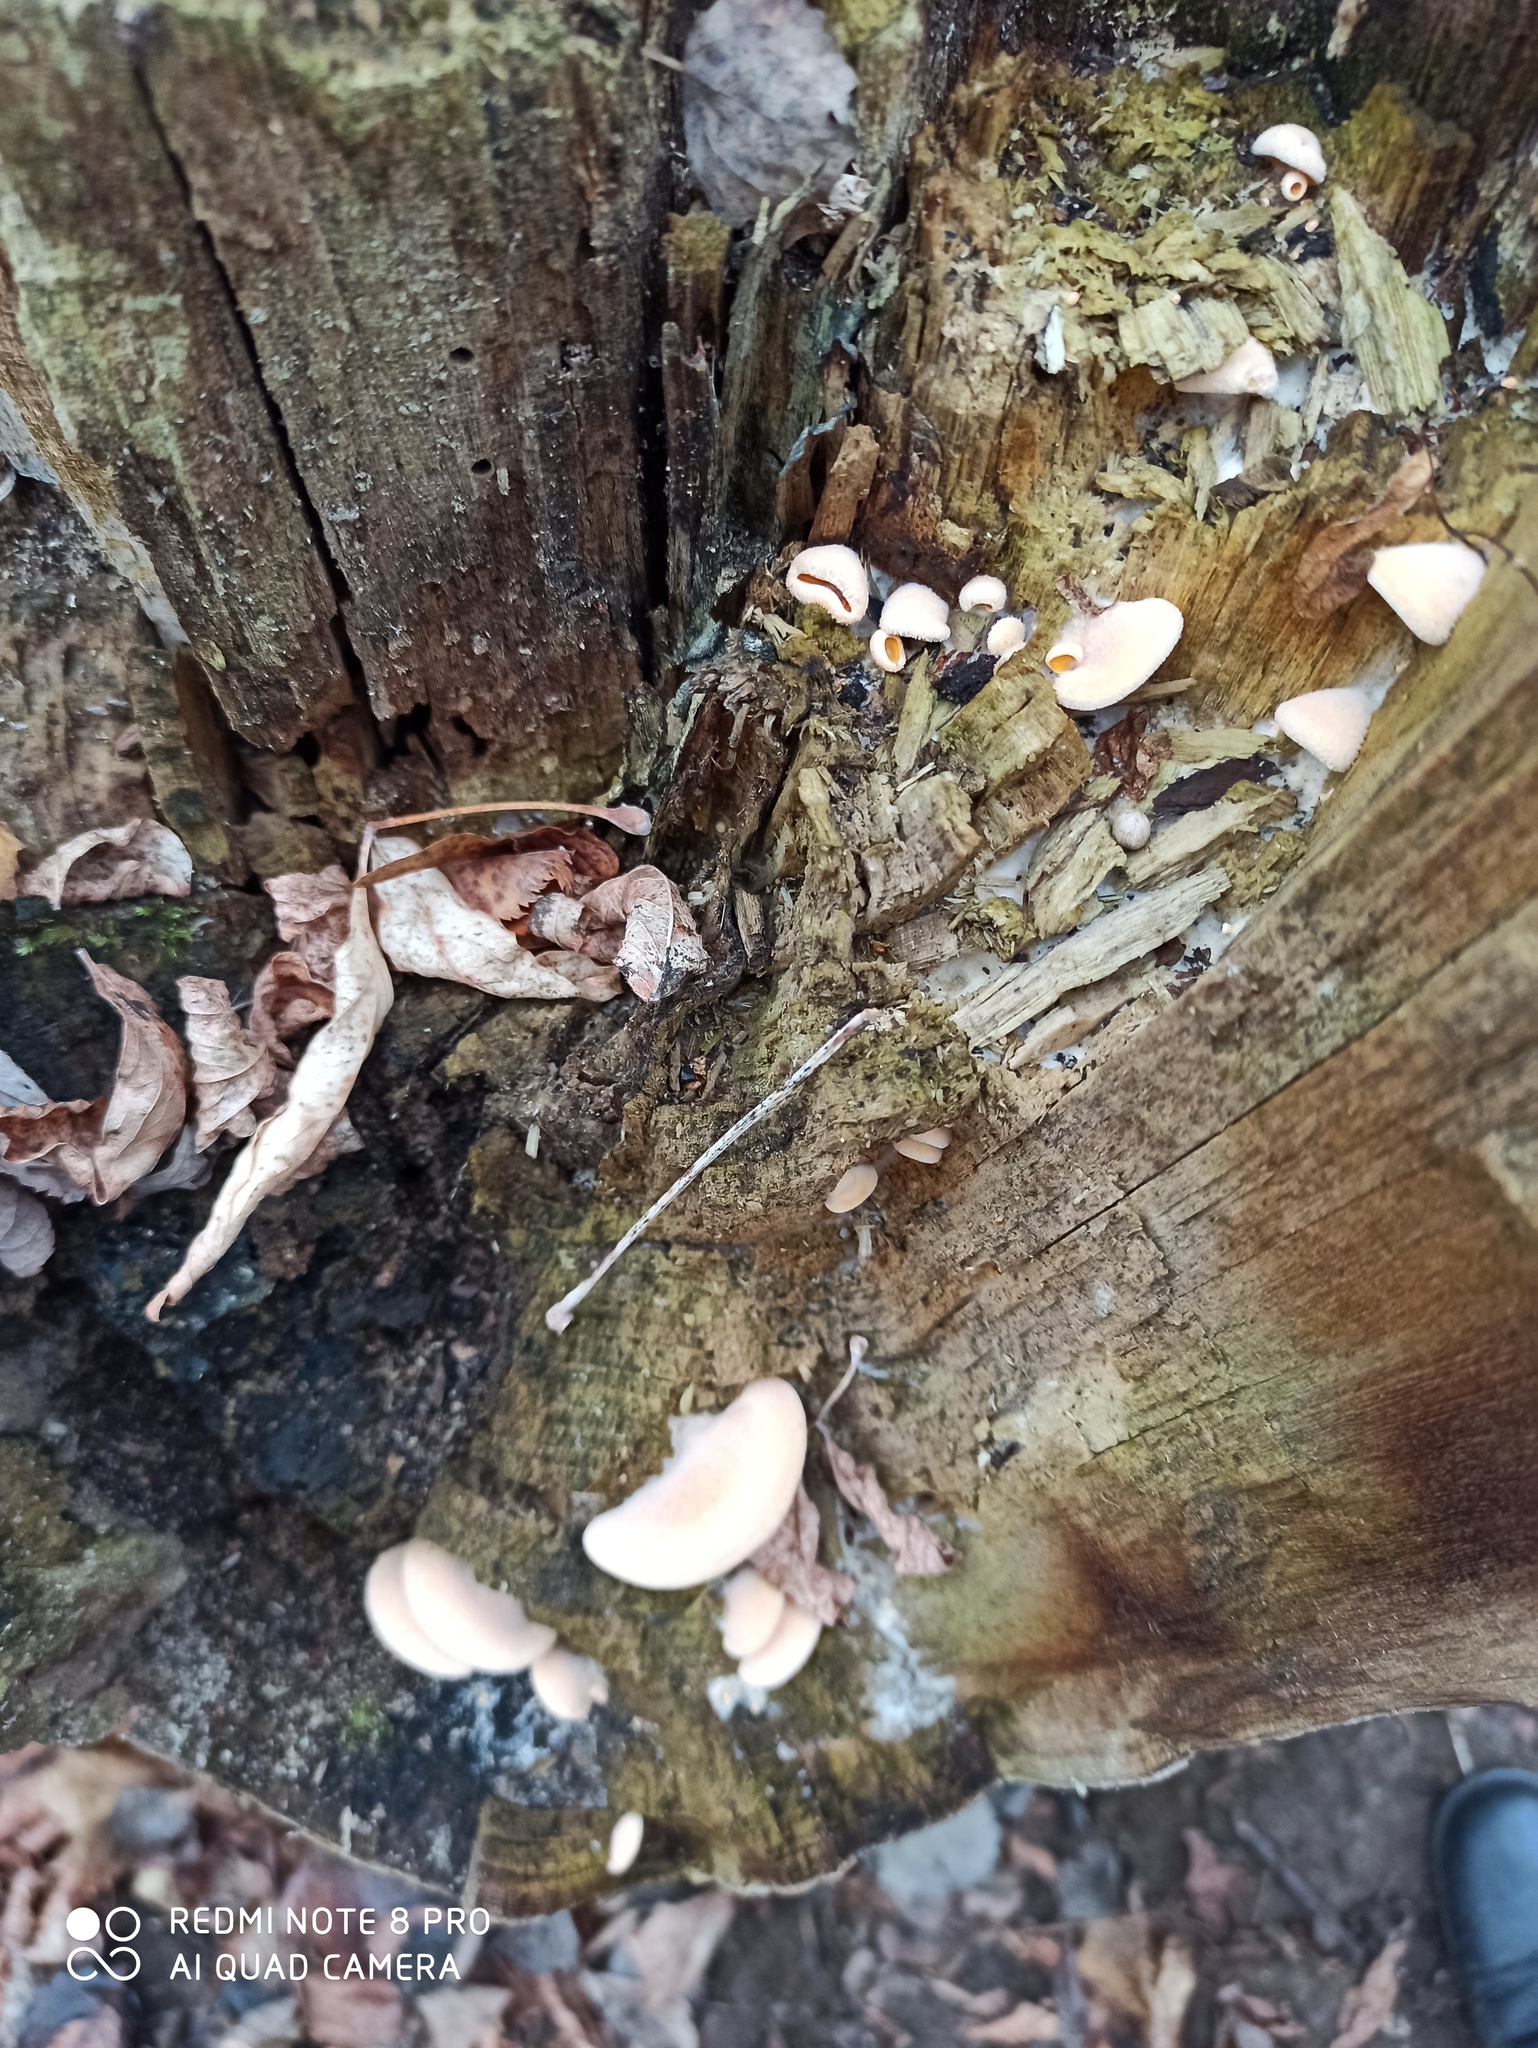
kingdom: Fungi
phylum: Basidiomycota
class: Agaricomycetes
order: Agaricales
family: Phyllotopsidaceae
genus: Phyllotopsis
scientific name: Phyllotopsis nidulans
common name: Orange mock oyster
